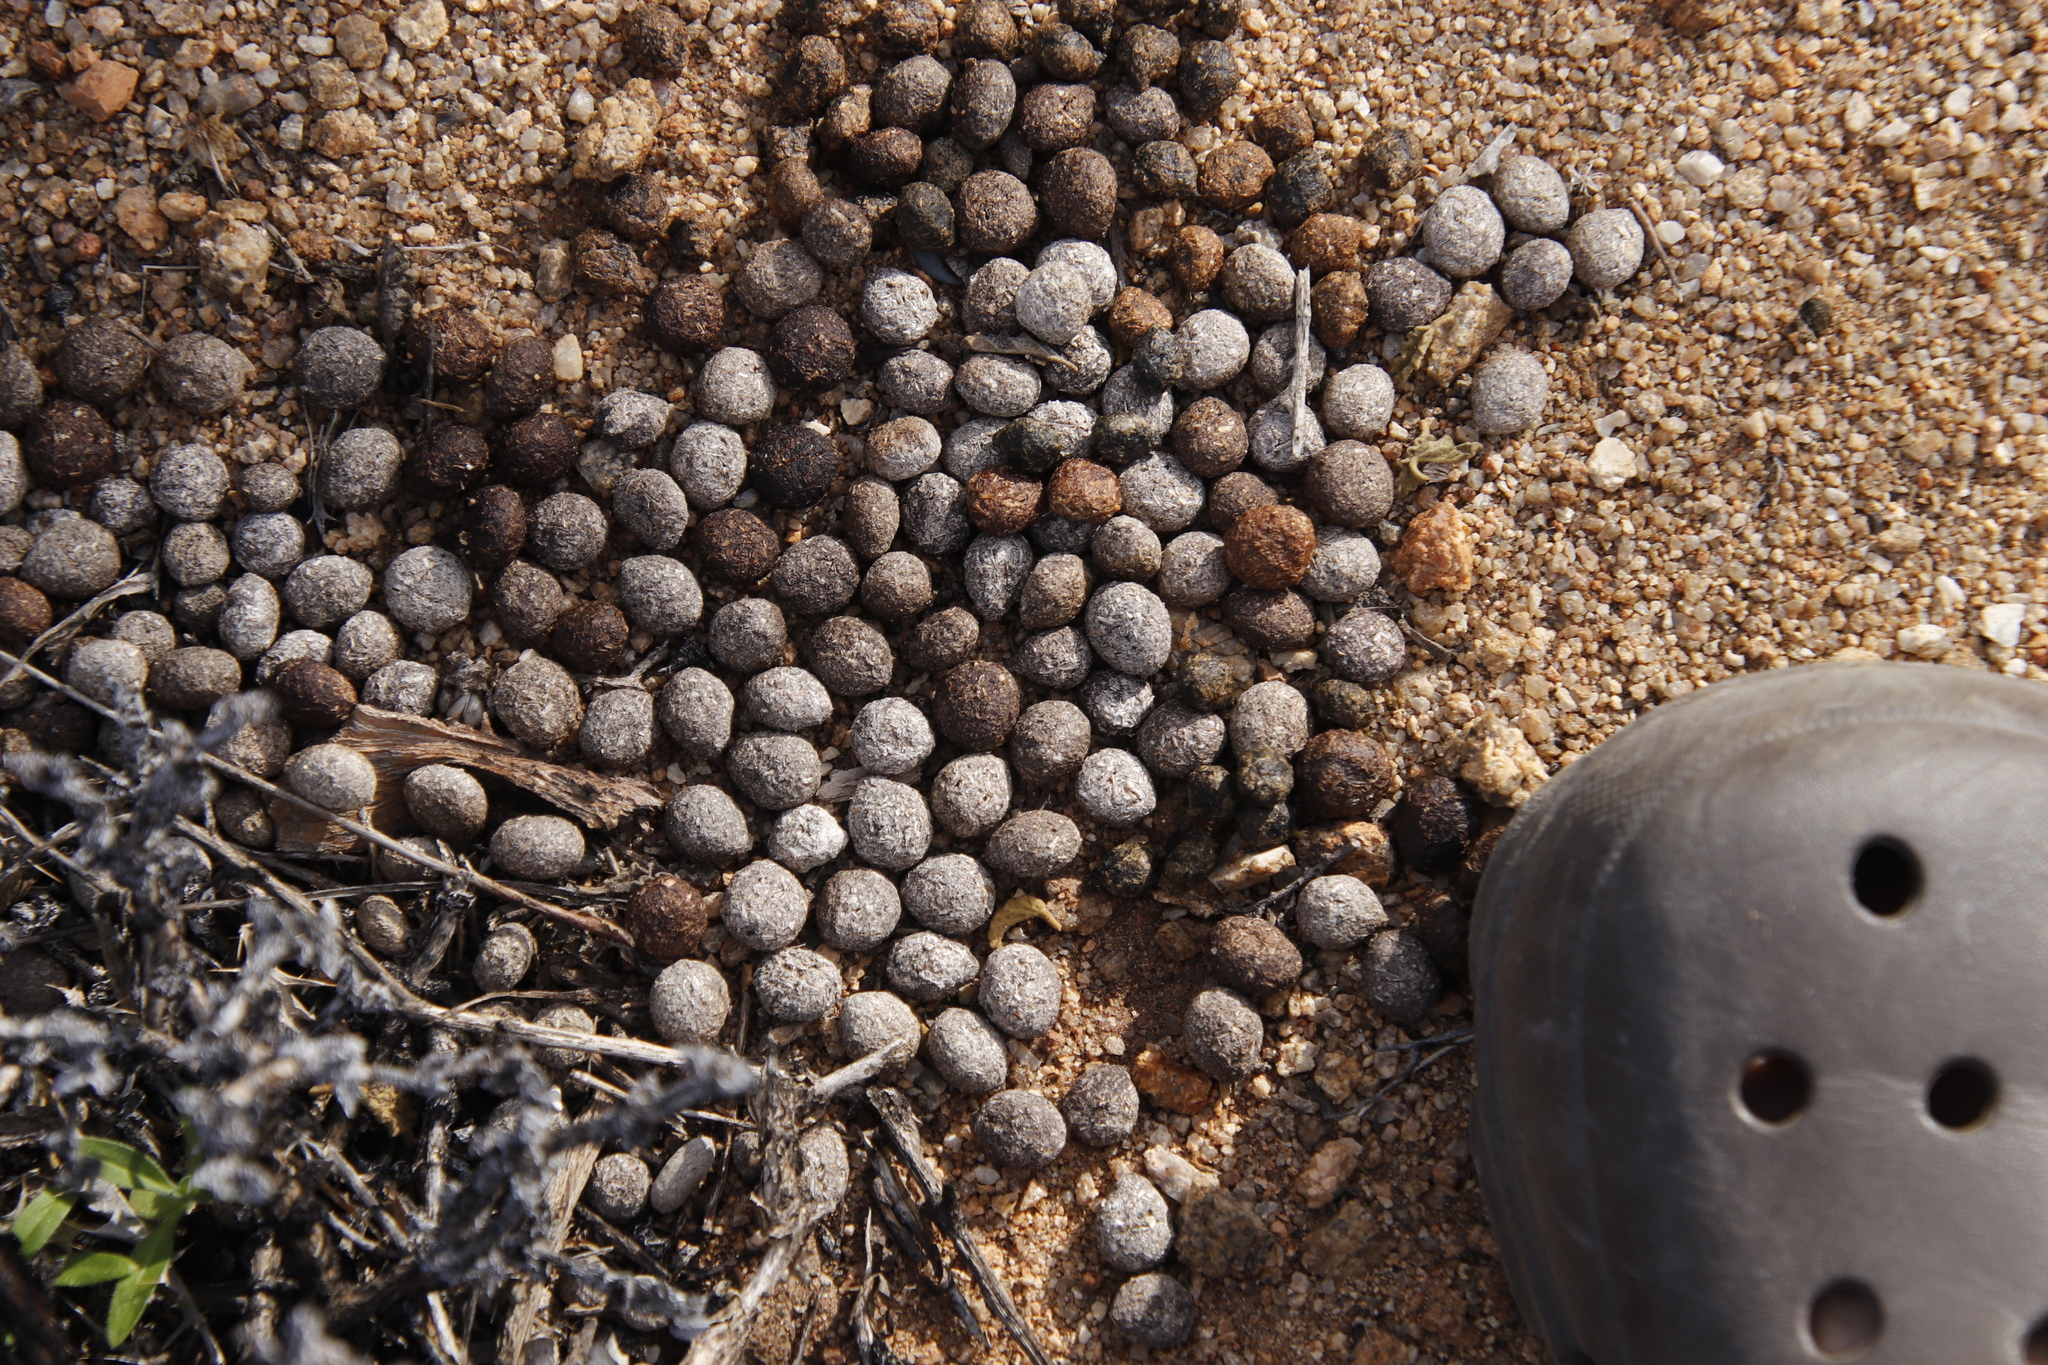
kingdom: Animalia
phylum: Chordata
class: Mammalia
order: Lagomorpha
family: Leporidae
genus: Pronolagus
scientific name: Pronolagus rupestris
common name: Smith's red rock hare
